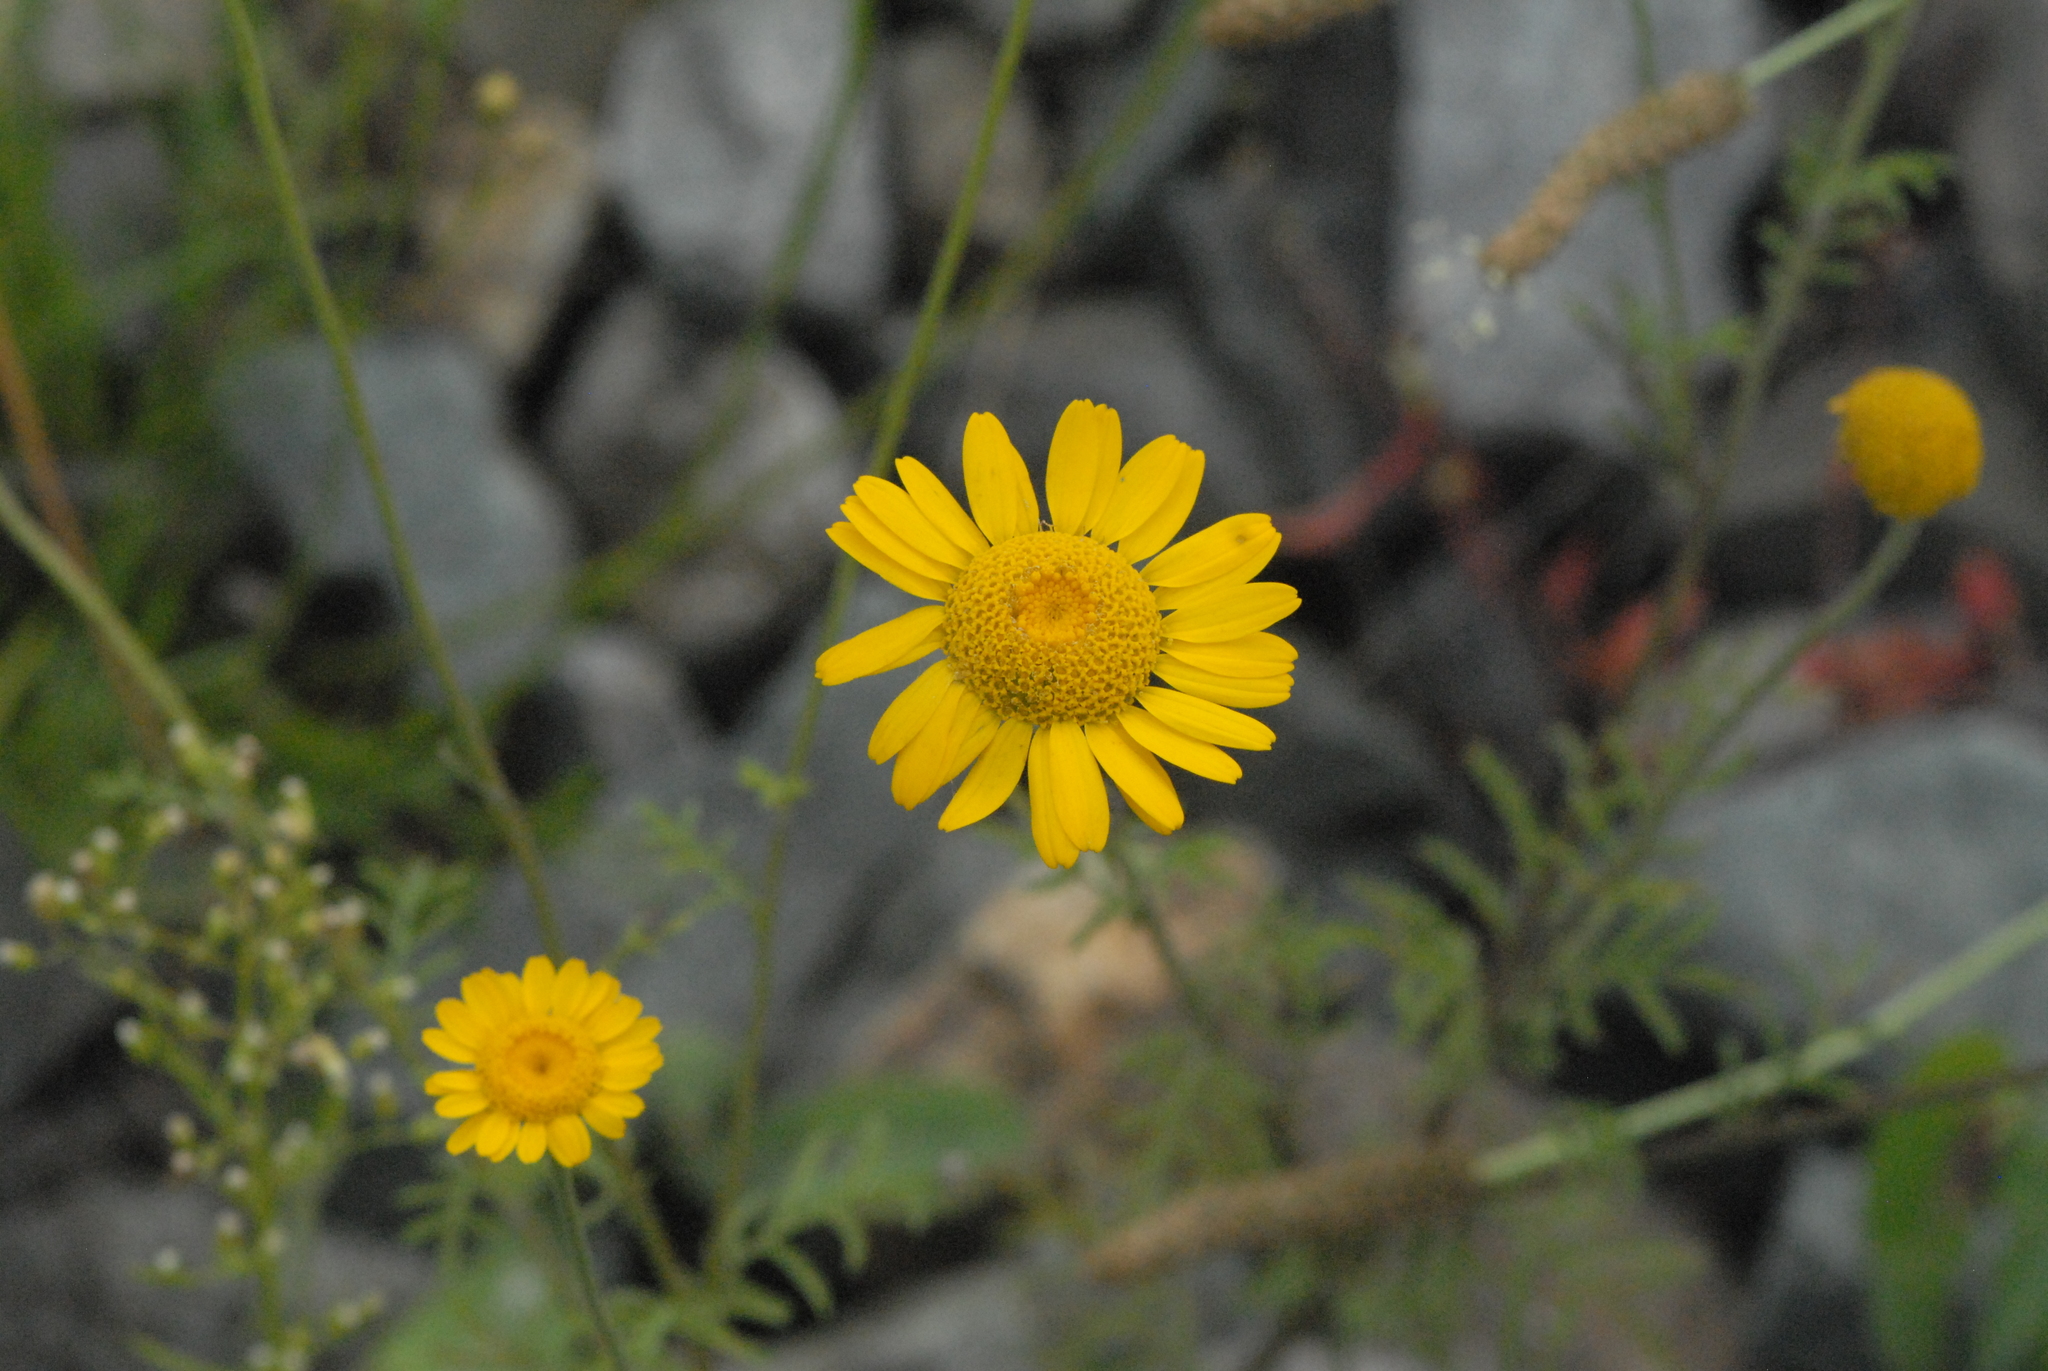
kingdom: Plantae
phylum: Tracheophyta
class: Magnoliopsida
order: Asterales
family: Asteraceae
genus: Cota
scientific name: Cota tinctoria
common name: Golden chamomile
